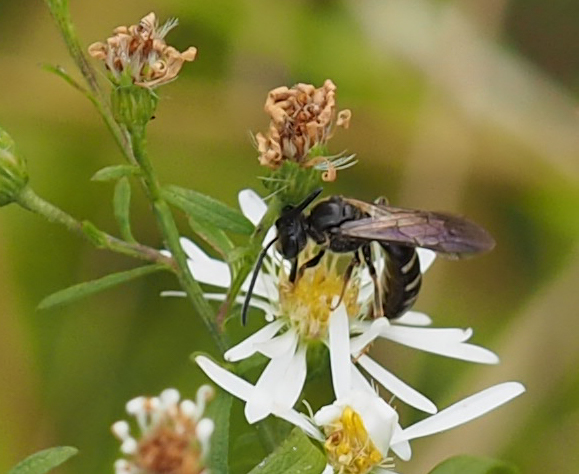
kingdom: Animalia
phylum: Arthropoda
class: Insecta
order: Hymenoptera
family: Halictidae
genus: Lasioglossum
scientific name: Lasioglossum fuscipenne
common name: Brown-winged sweat bee
